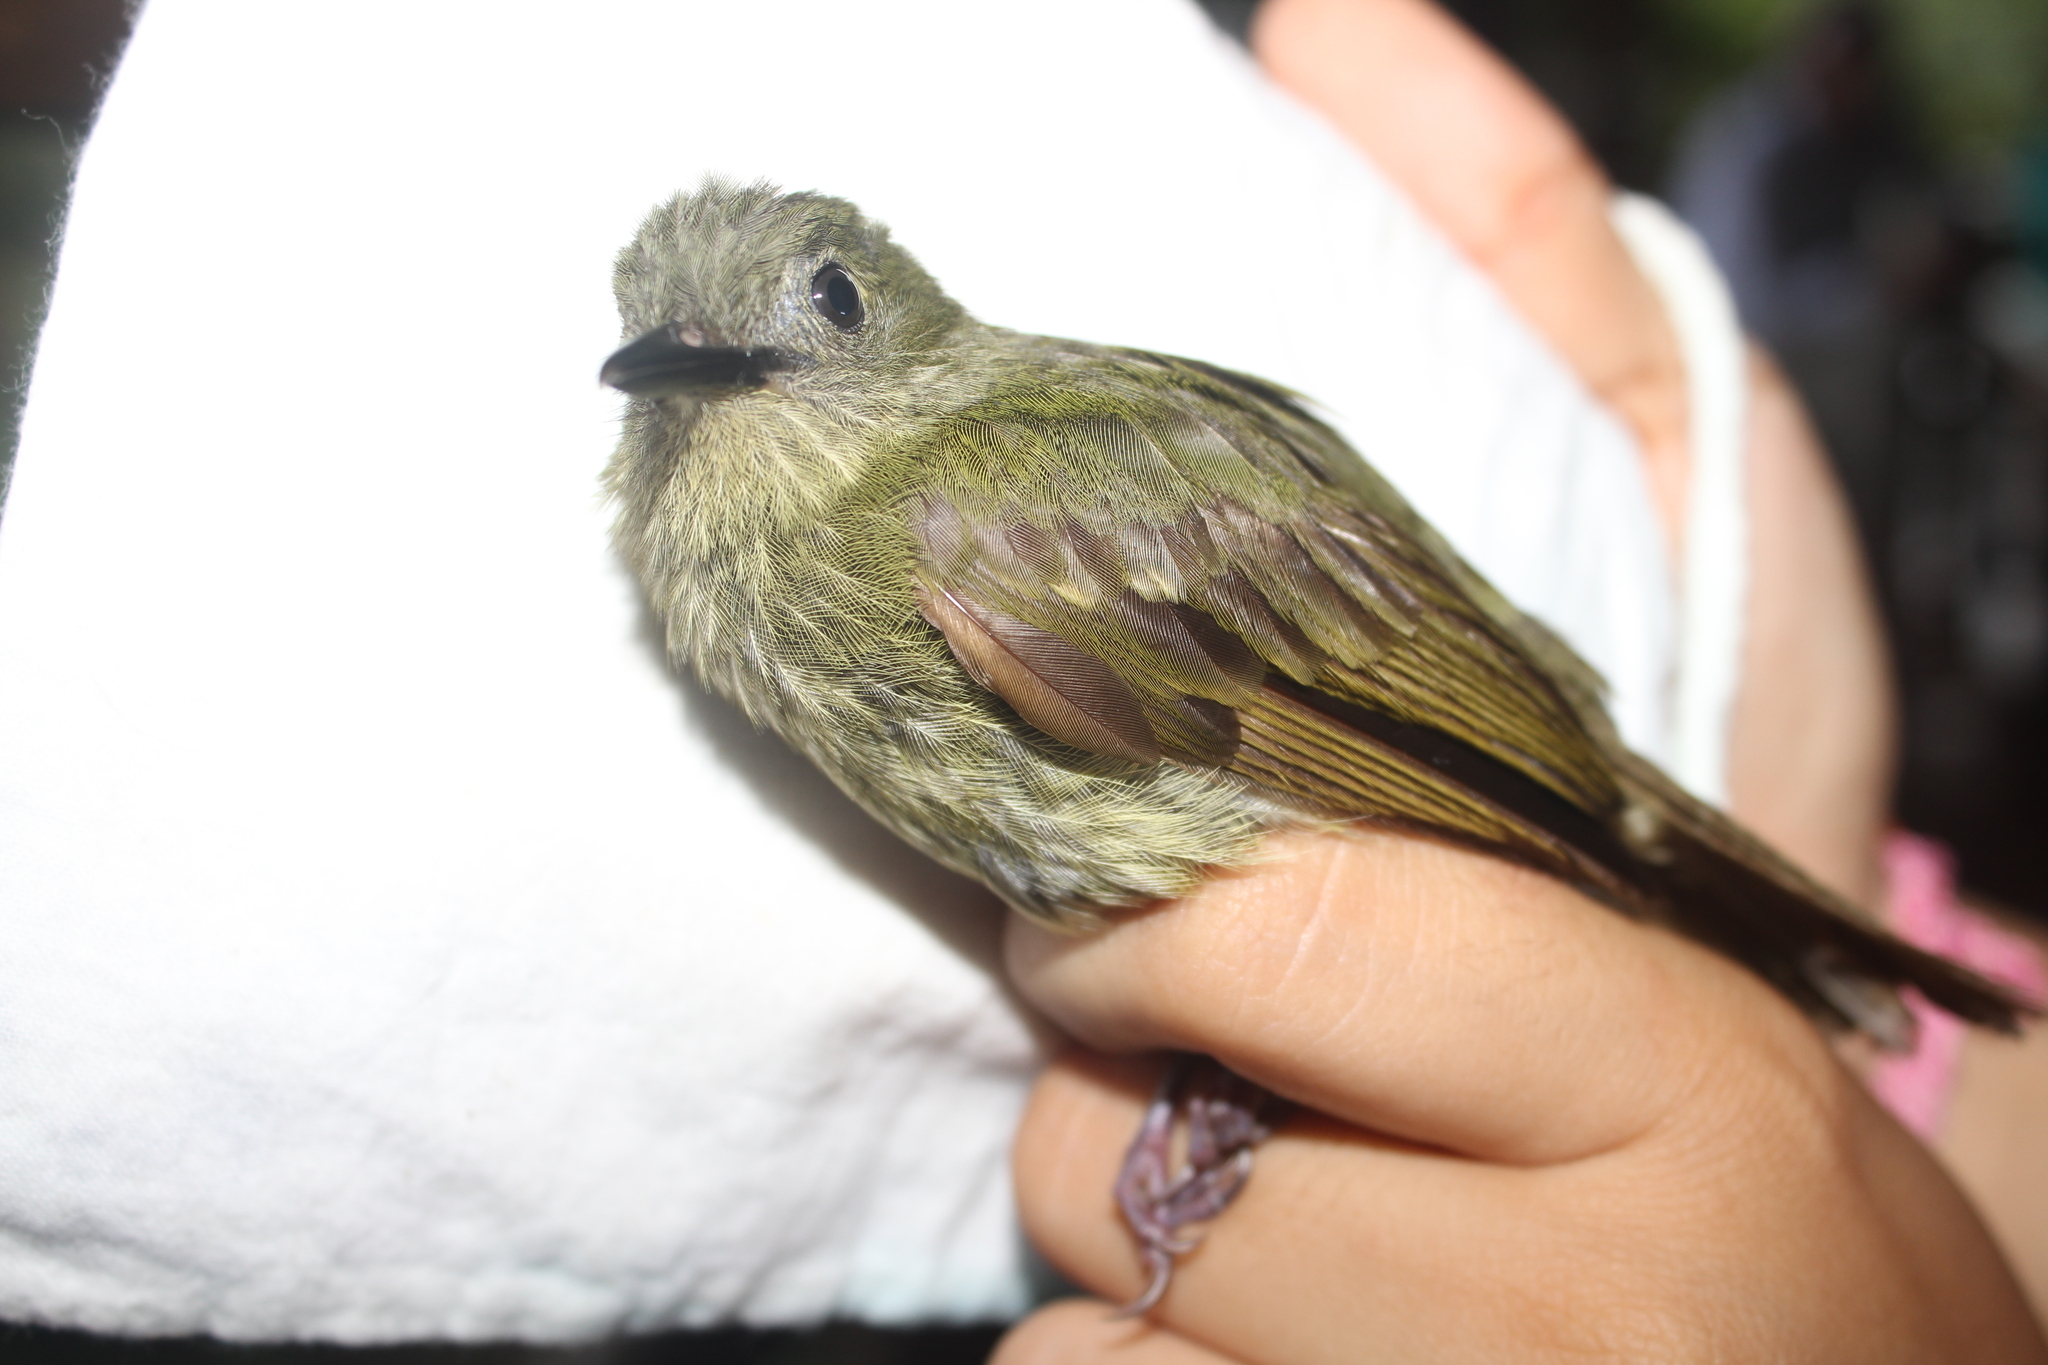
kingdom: Animalia
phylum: Chordata
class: Aves
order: Passeriformes
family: Tyrannidae
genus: Rhynchocyclus
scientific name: Rhynchocyclus olivaceus
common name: Olivaceous flatbill
